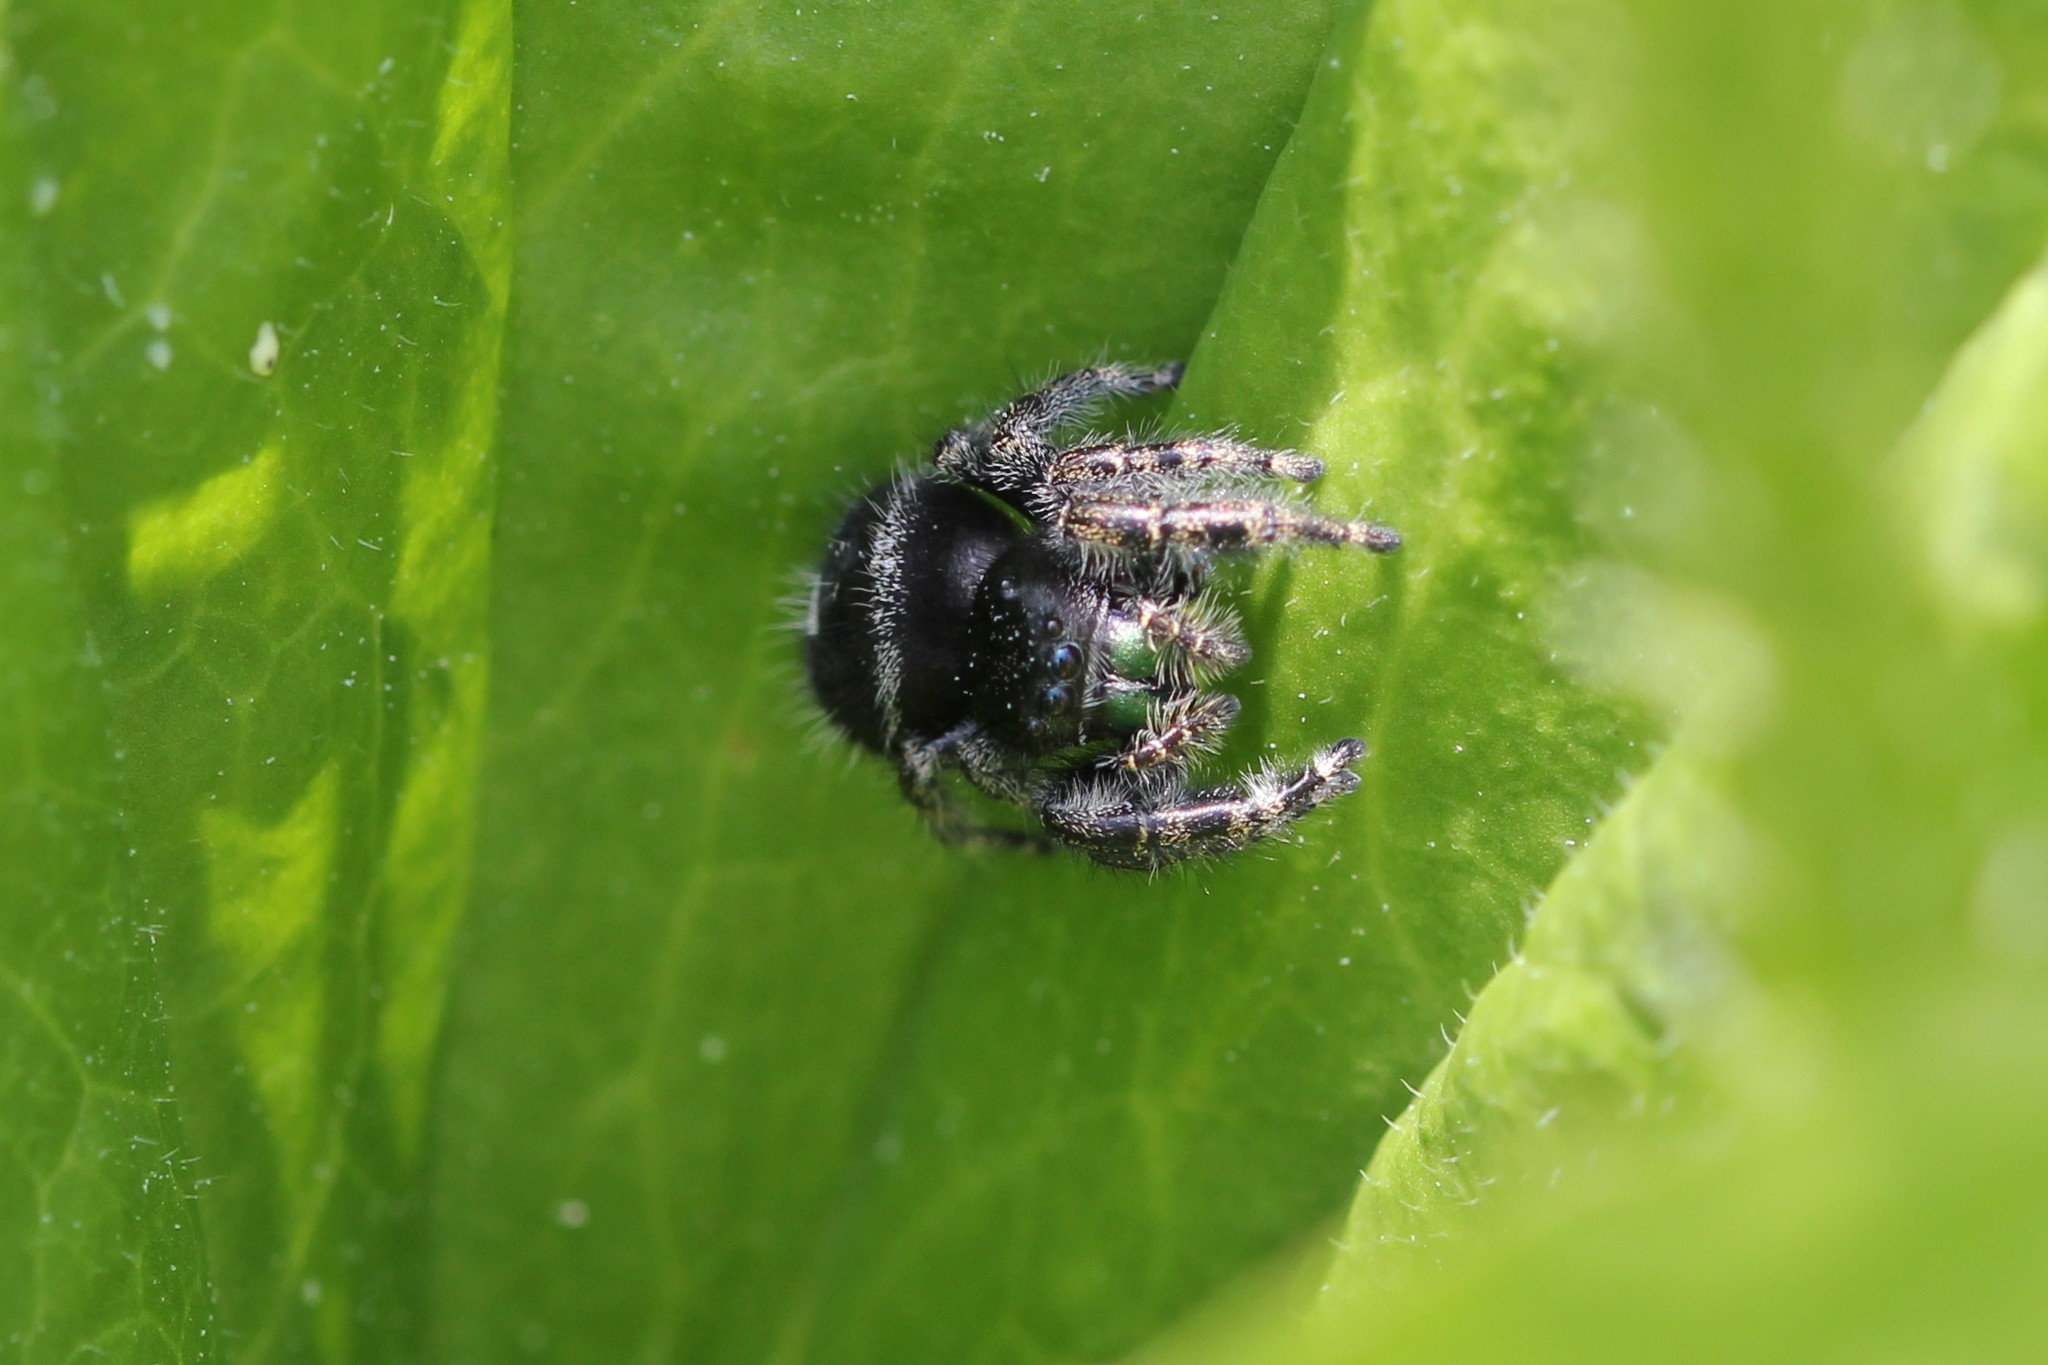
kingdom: Animalia
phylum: Arthropoda
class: Arachnida
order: Araneae
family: Salticidae
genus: Phidippus
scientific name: Phidippus audax
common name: Bold jumper
